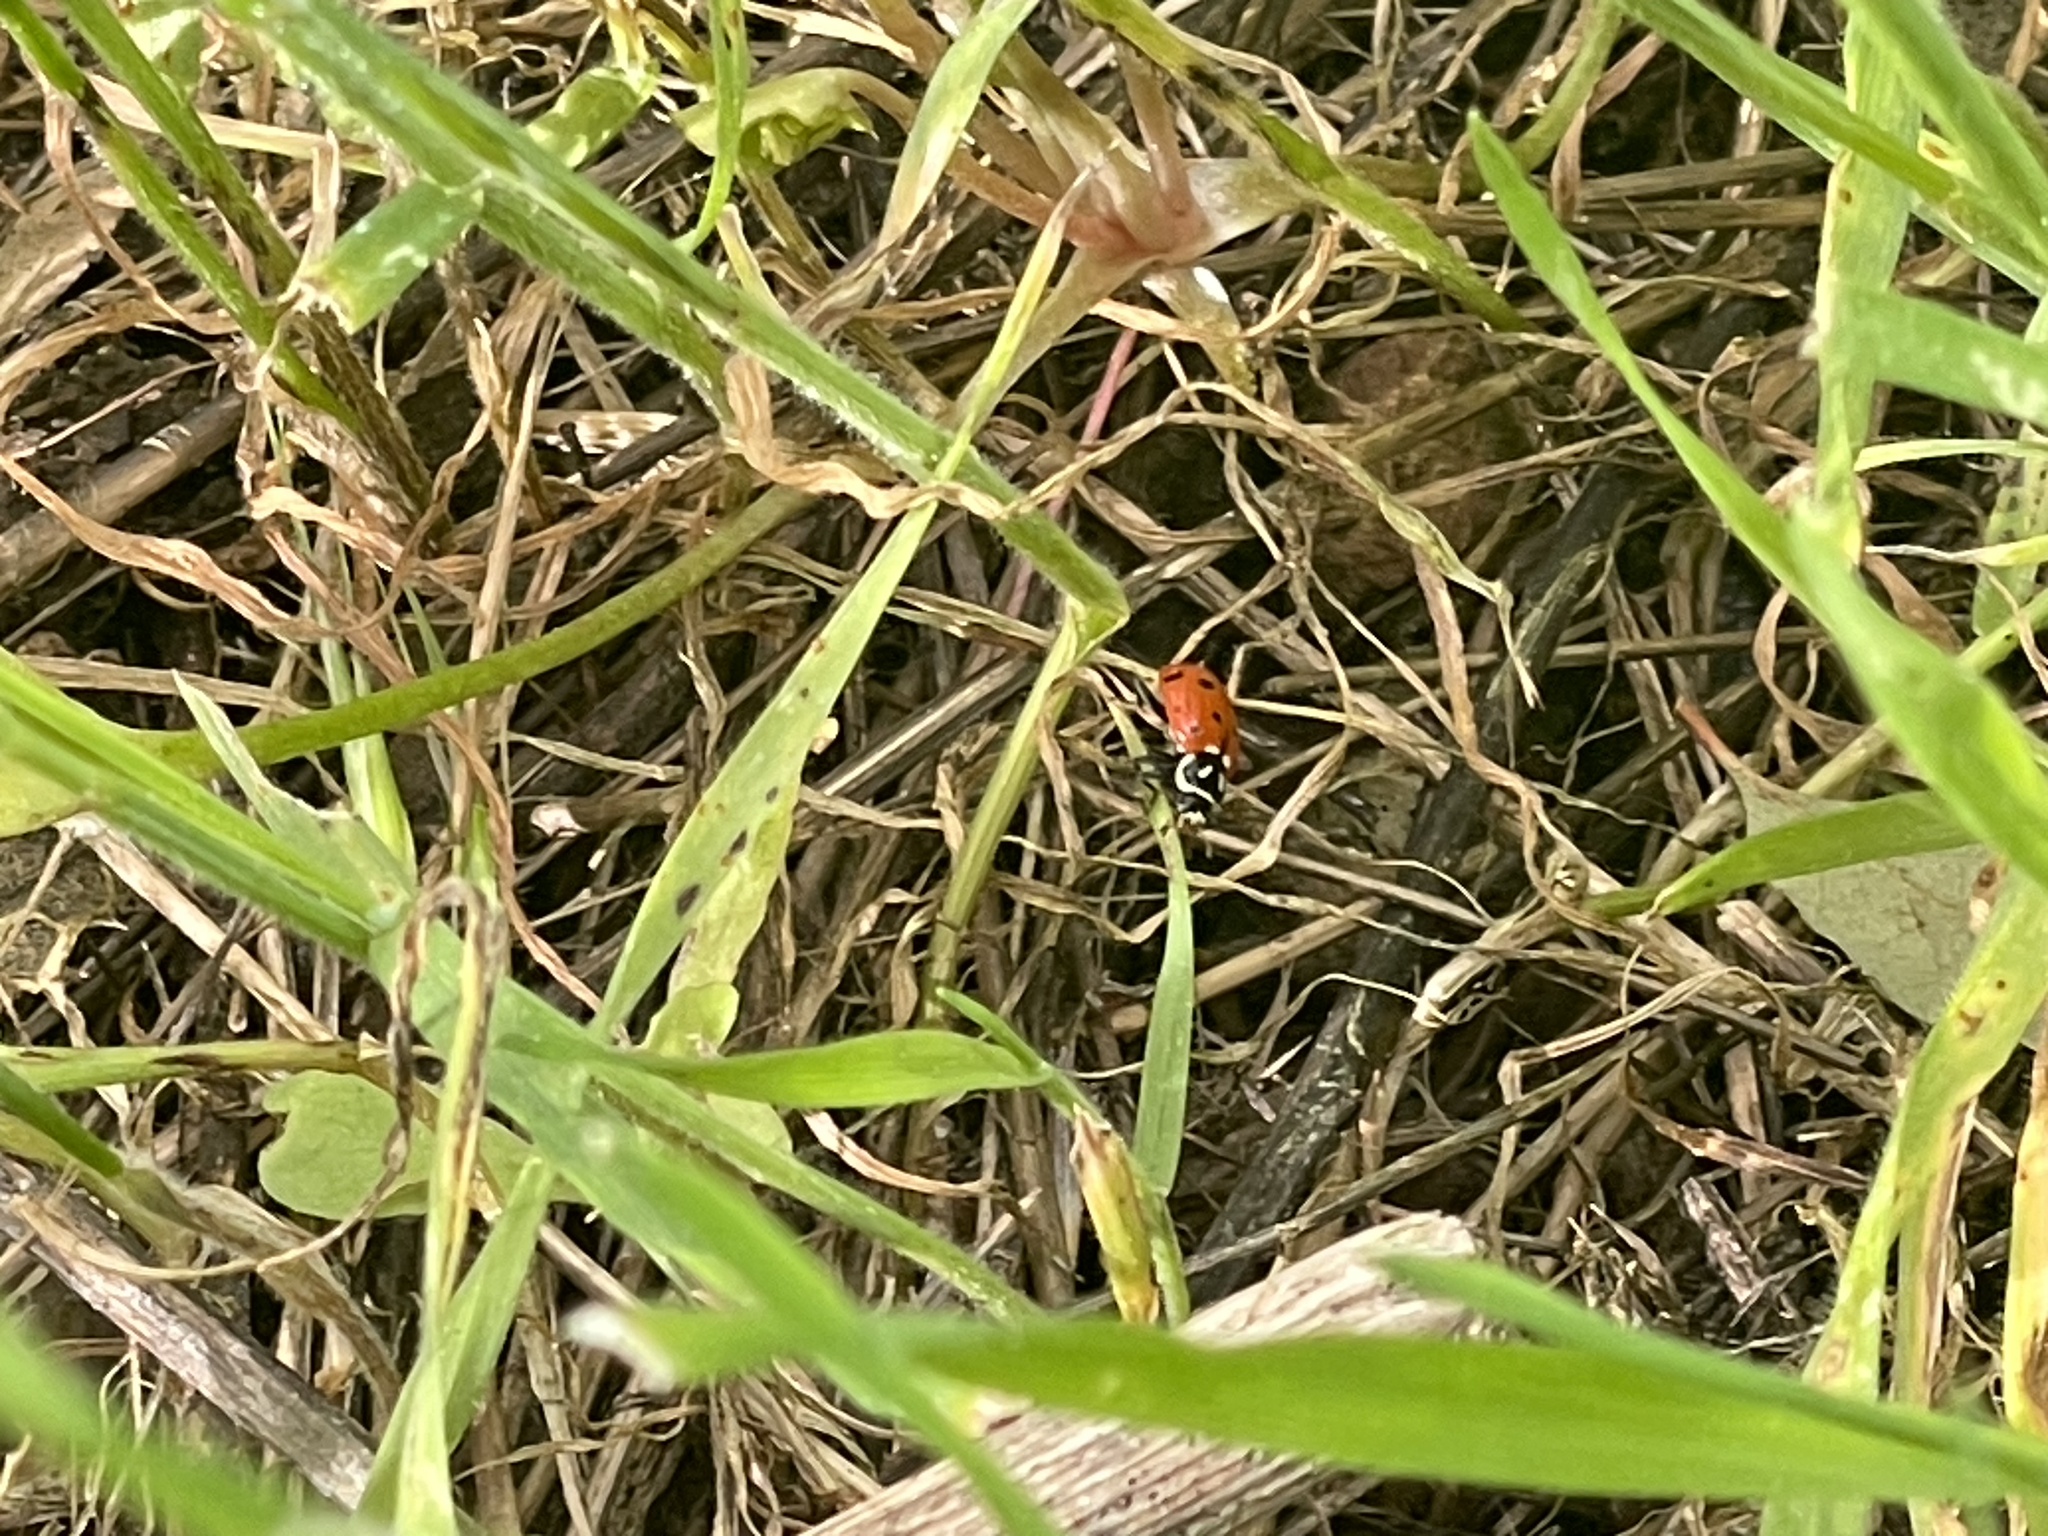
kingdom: Animalia
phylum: Arthropoda
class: Insecta
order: Coleoptera
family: Coccinellidae
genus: Hippodamia
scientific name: Hippodamia convergens
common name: Convergent lady beetle
